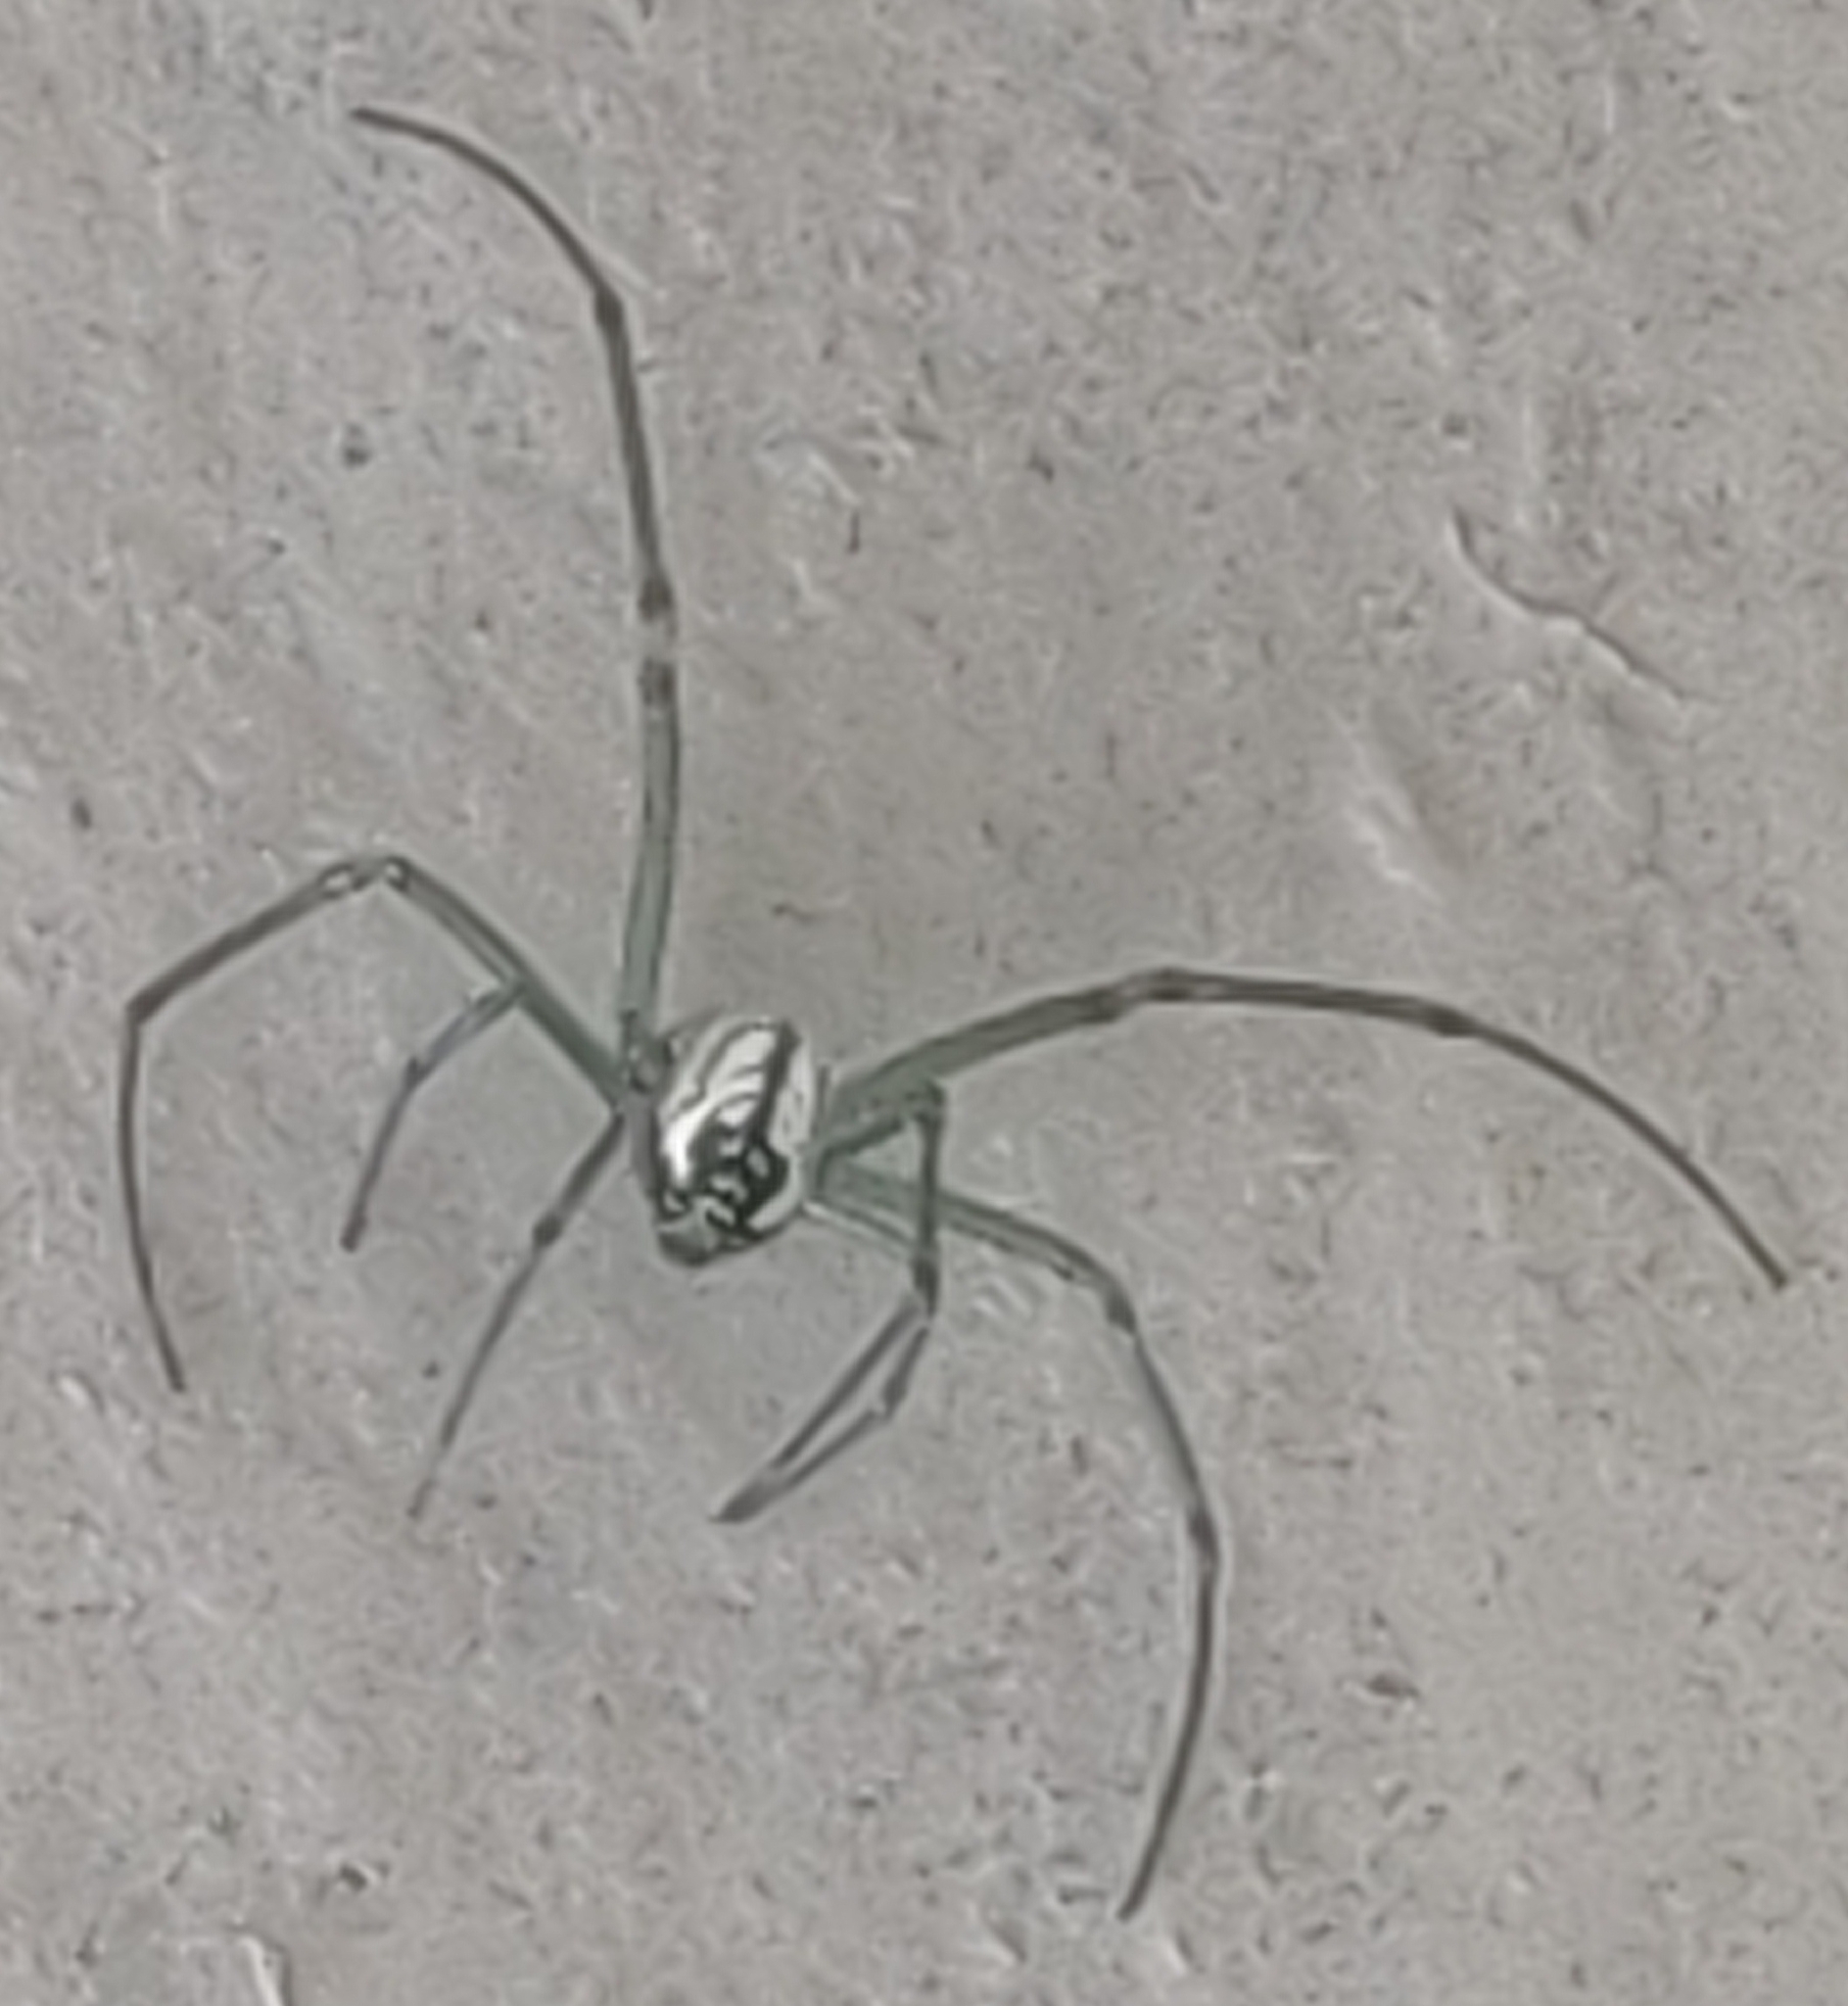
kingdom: Animalia
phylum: Arthropoda
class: Arachnida
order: Araneae
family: Tetragnathidae
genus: Leucauge
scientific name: Leucauge venusta
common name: Longjawed orb weavers
